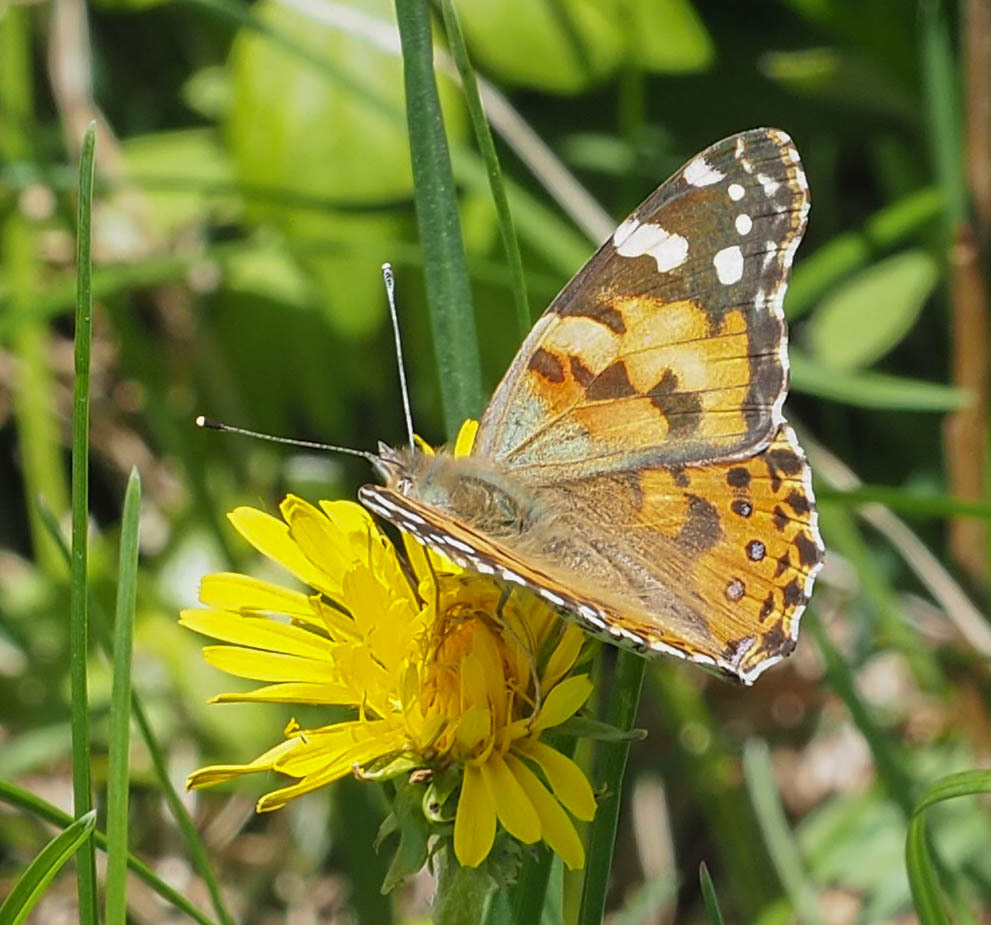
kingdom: Animalia
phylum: Arthropoda
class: Insecta
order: Lepidoptera
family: Nymphalidae
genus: Vanessa
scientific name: Vanessa cardui
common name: Painted lady
